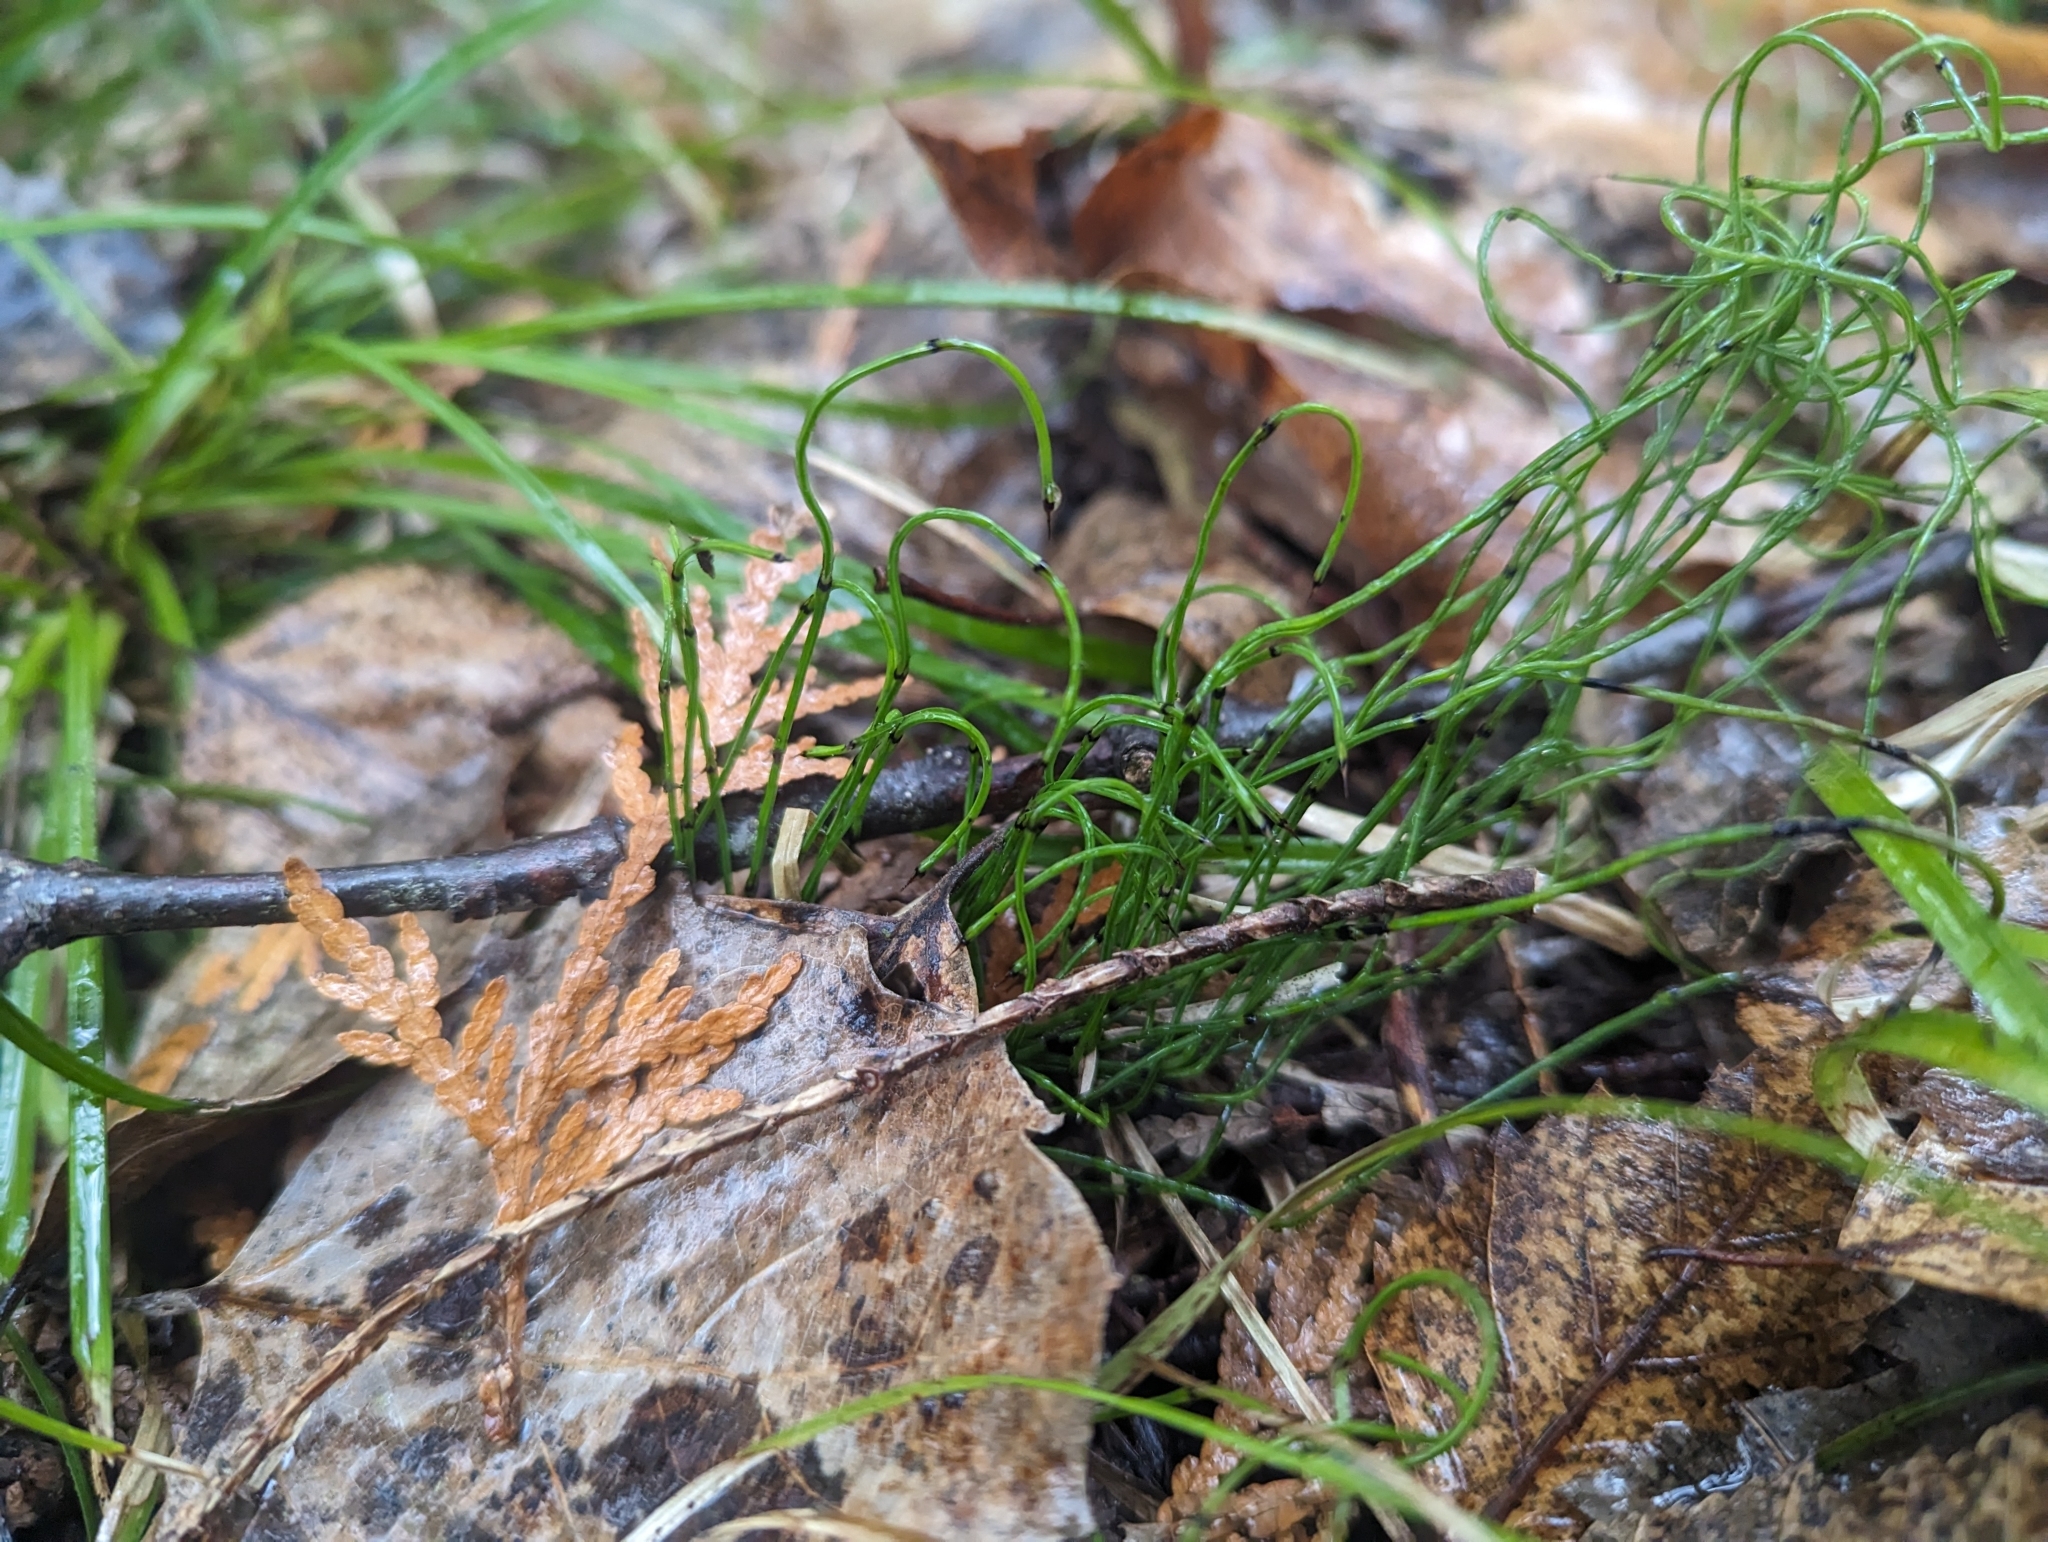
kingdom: Plantae
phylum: Tracheophyta
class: Polypodiopsida
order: Equisetales
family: Equisetaceae
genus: Equisetum
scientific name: Equisetum scirpoides
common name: Delicate horsetail
